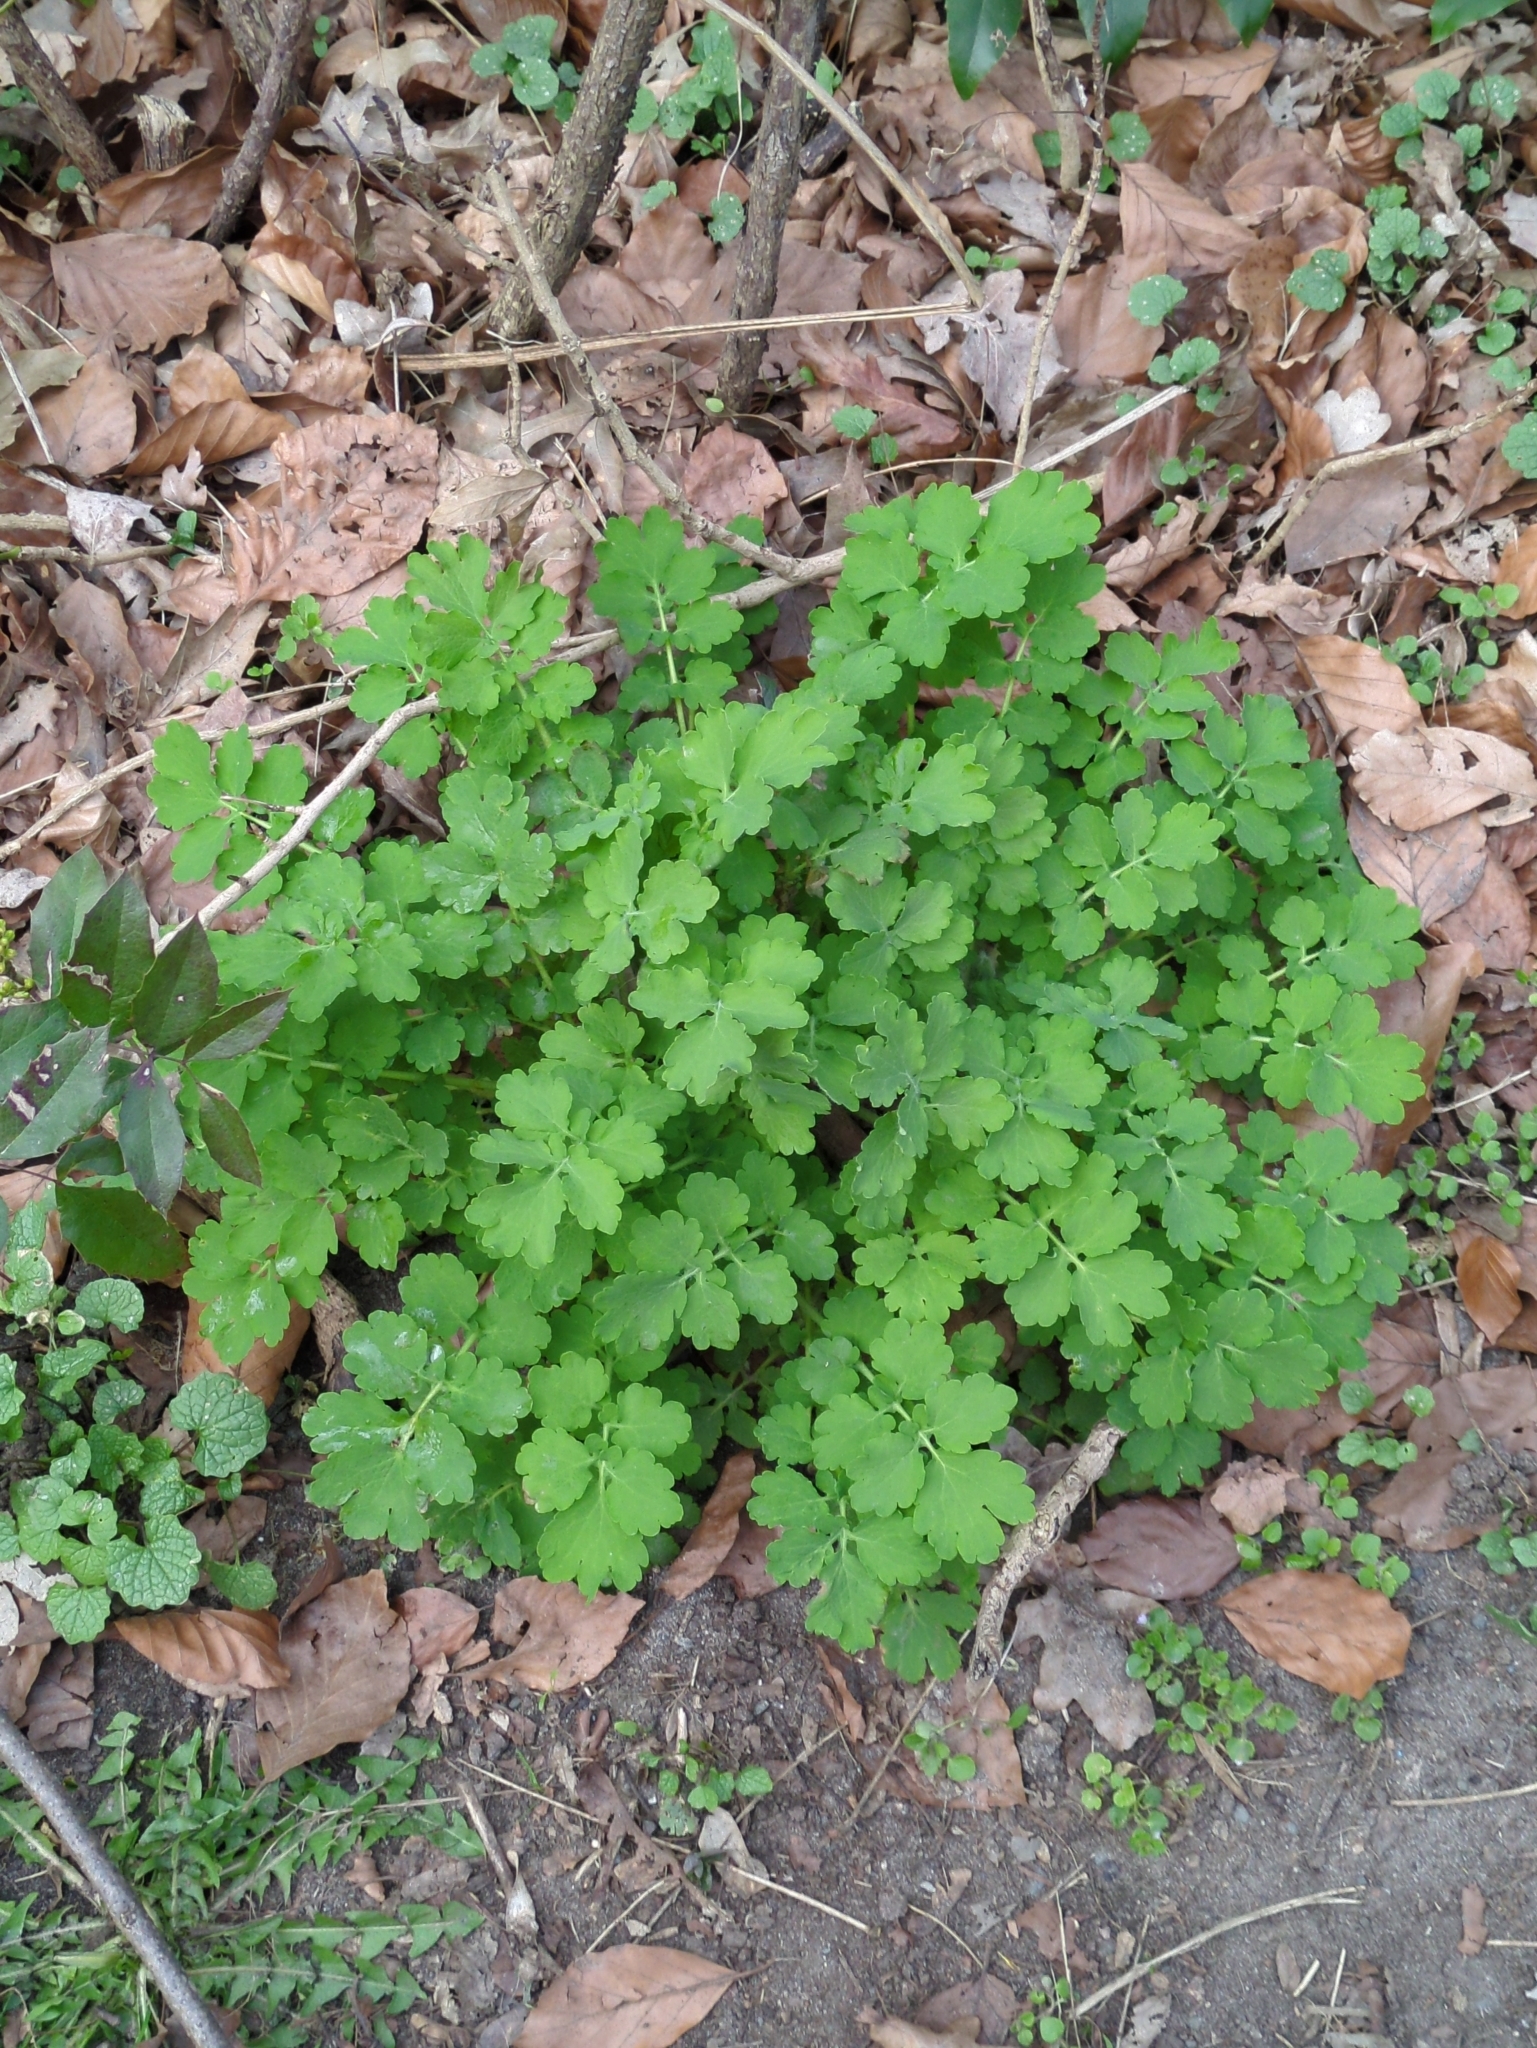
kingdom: Plantae
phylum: Tracheophyta
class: Magnoliopsida
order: Ranunculales
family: Papaveraceae
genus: Chelidonium
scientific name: Chelidonium majus
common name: Greater celandine
